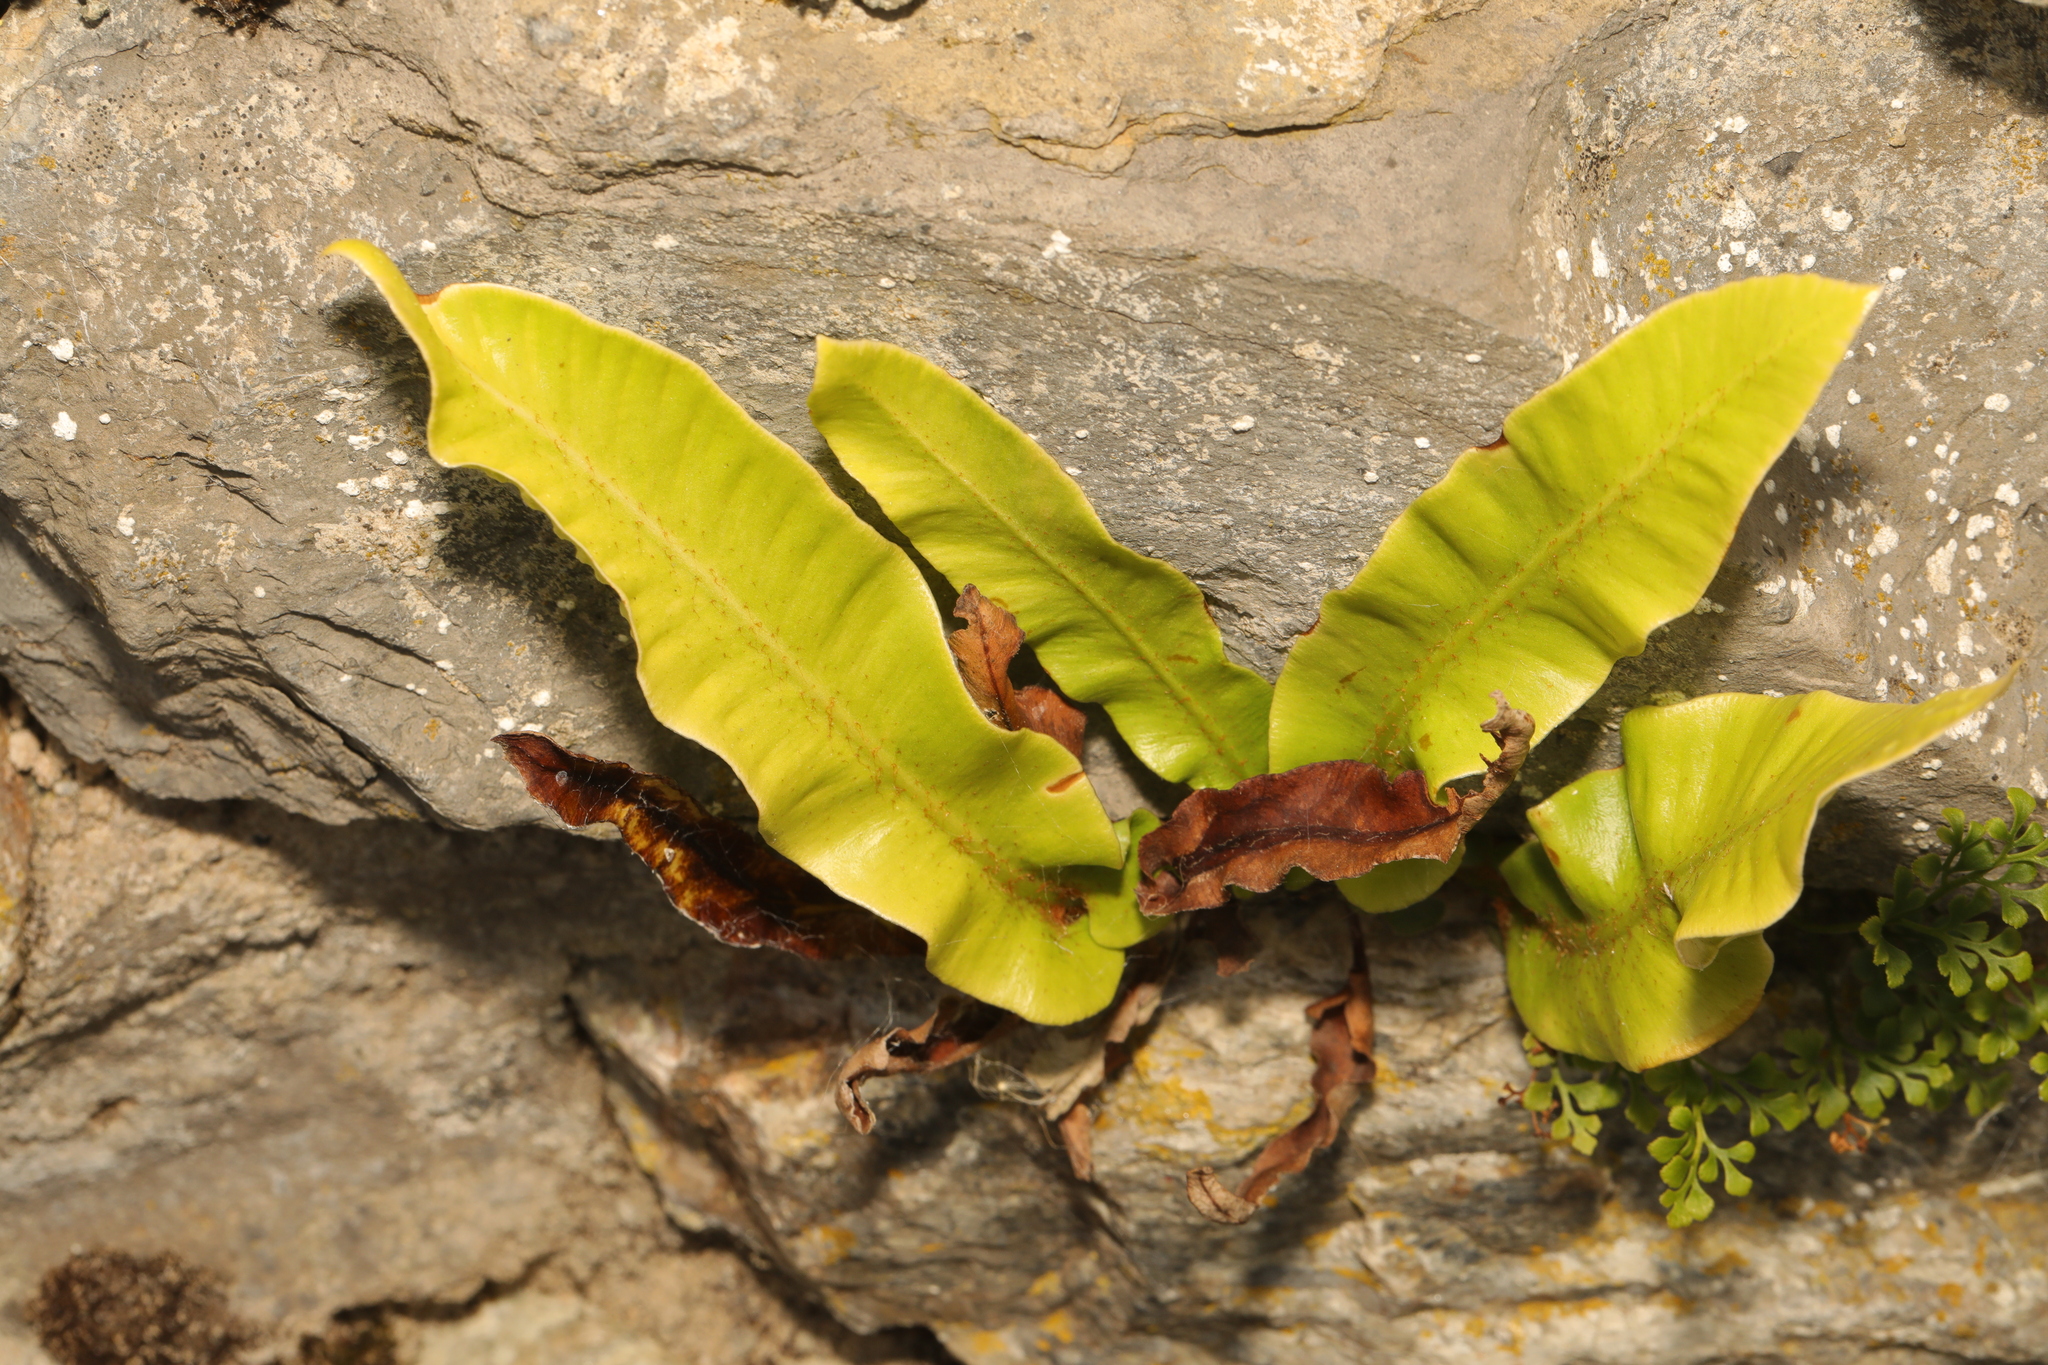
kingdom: Plantae
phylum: Tracheophyta
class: Polypodiopsida
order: Polypodiales
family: Aspleniaceae
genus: Asplenium
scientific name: Asplenium scolopendrium
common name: Hart's-tongue fern
